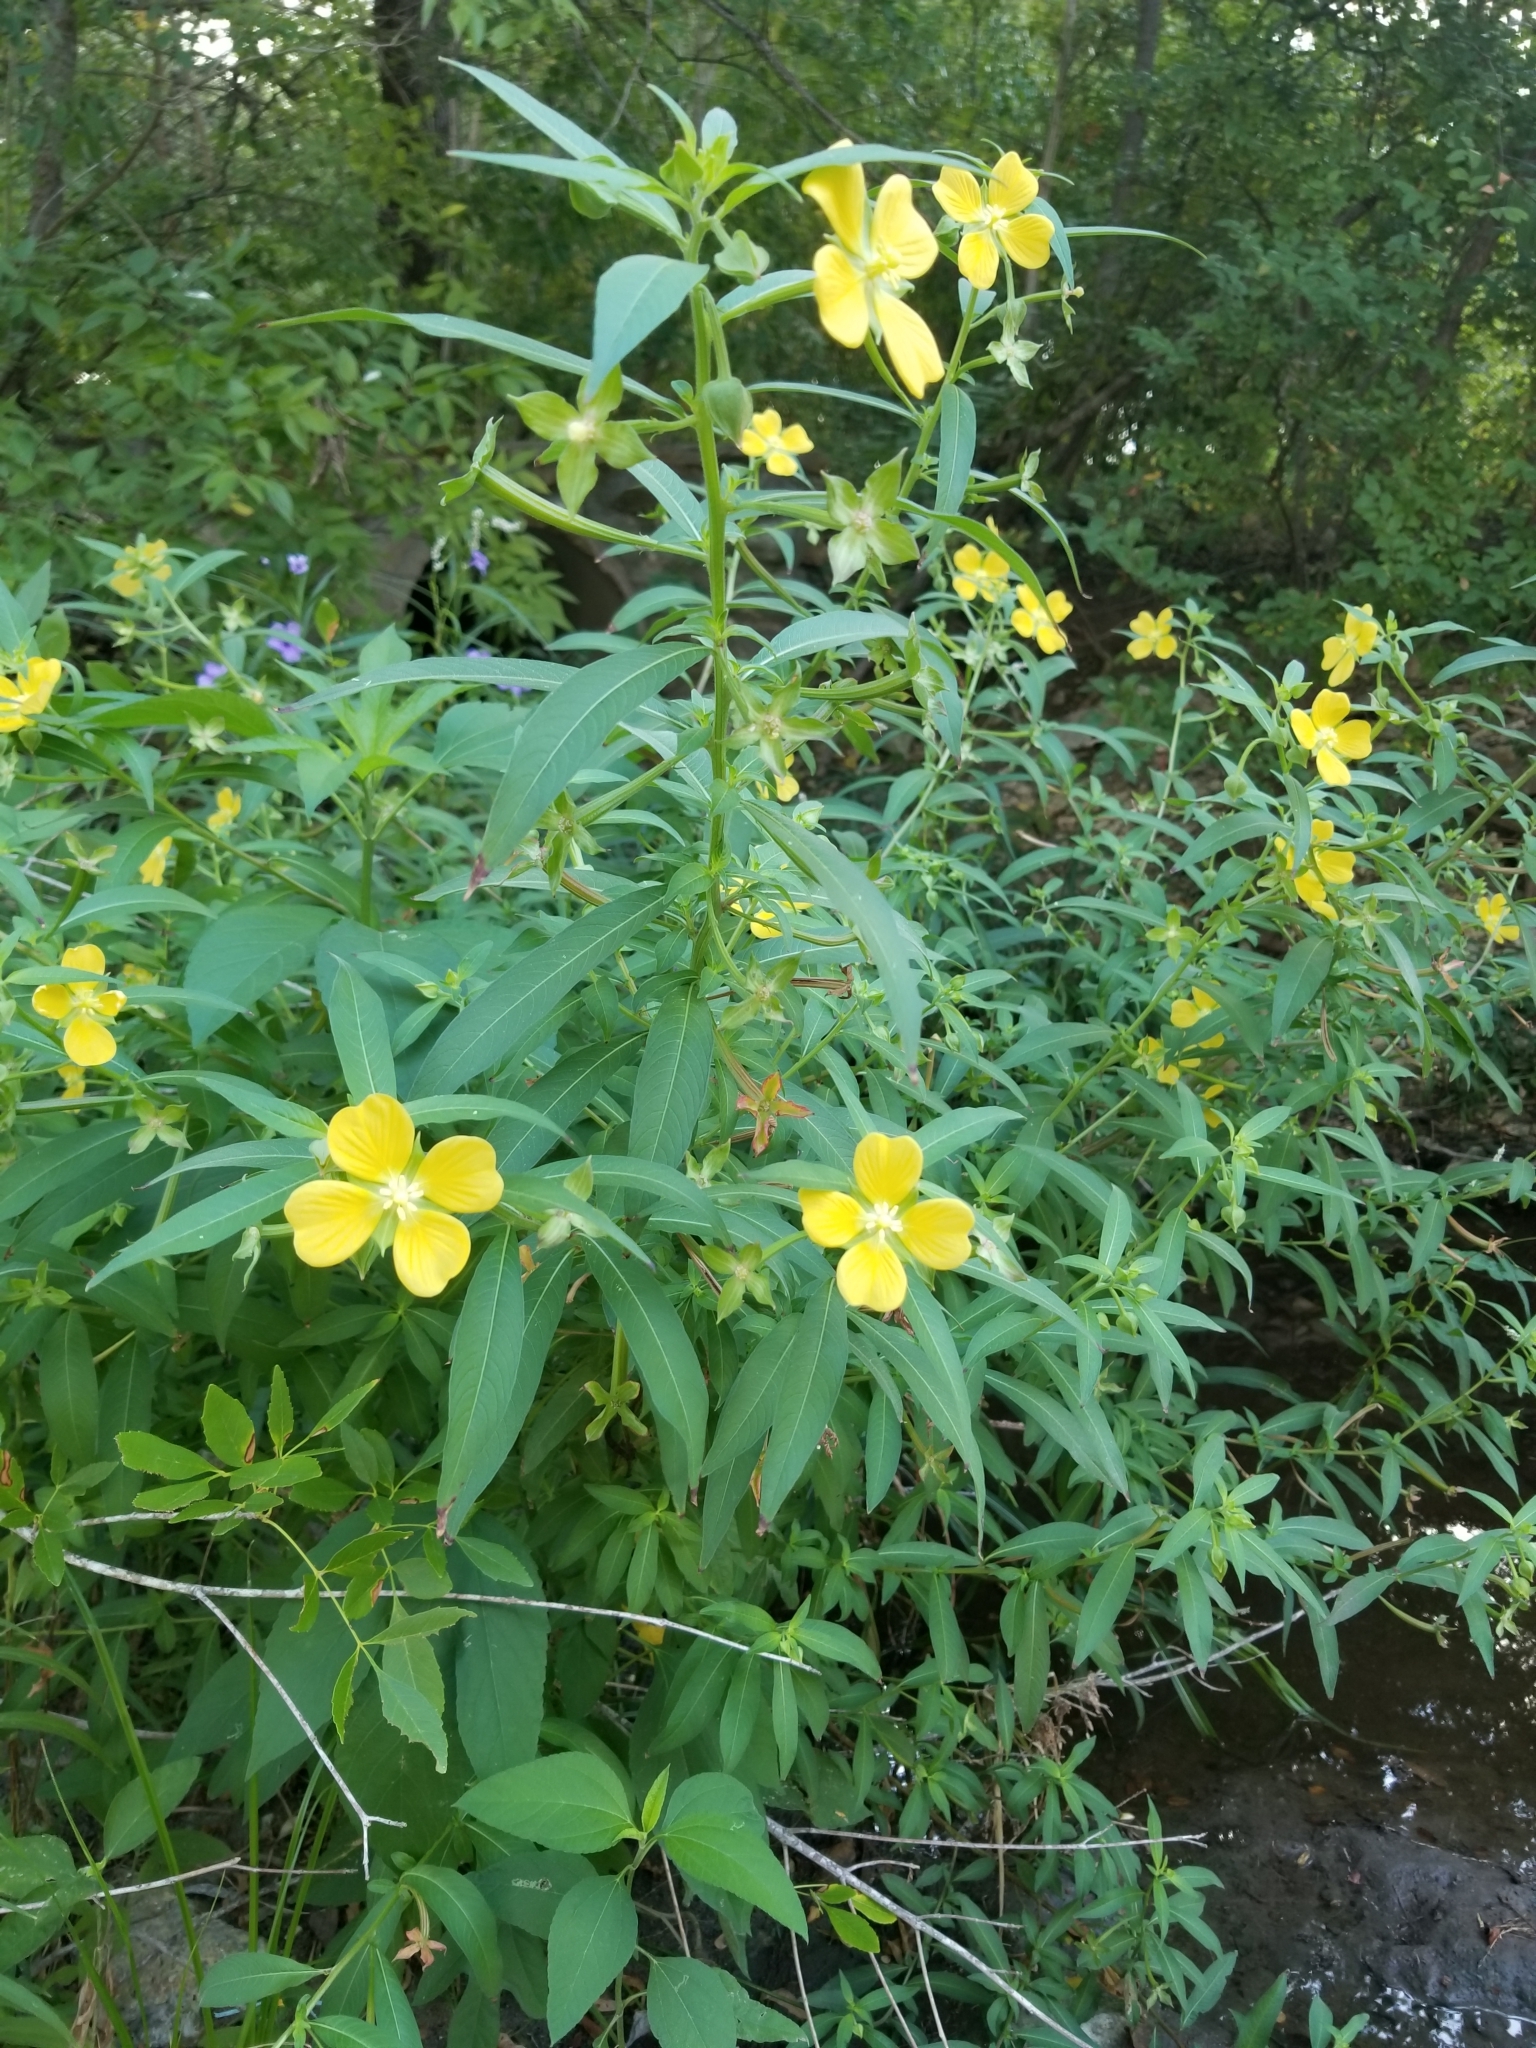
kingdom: Plantae
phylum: Tracheophyta
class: Magnoliopsida
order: Myrtales
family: Onagraceae
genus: Ludwigia
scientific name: Ludwigia octovalvis
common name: Water-primrose
